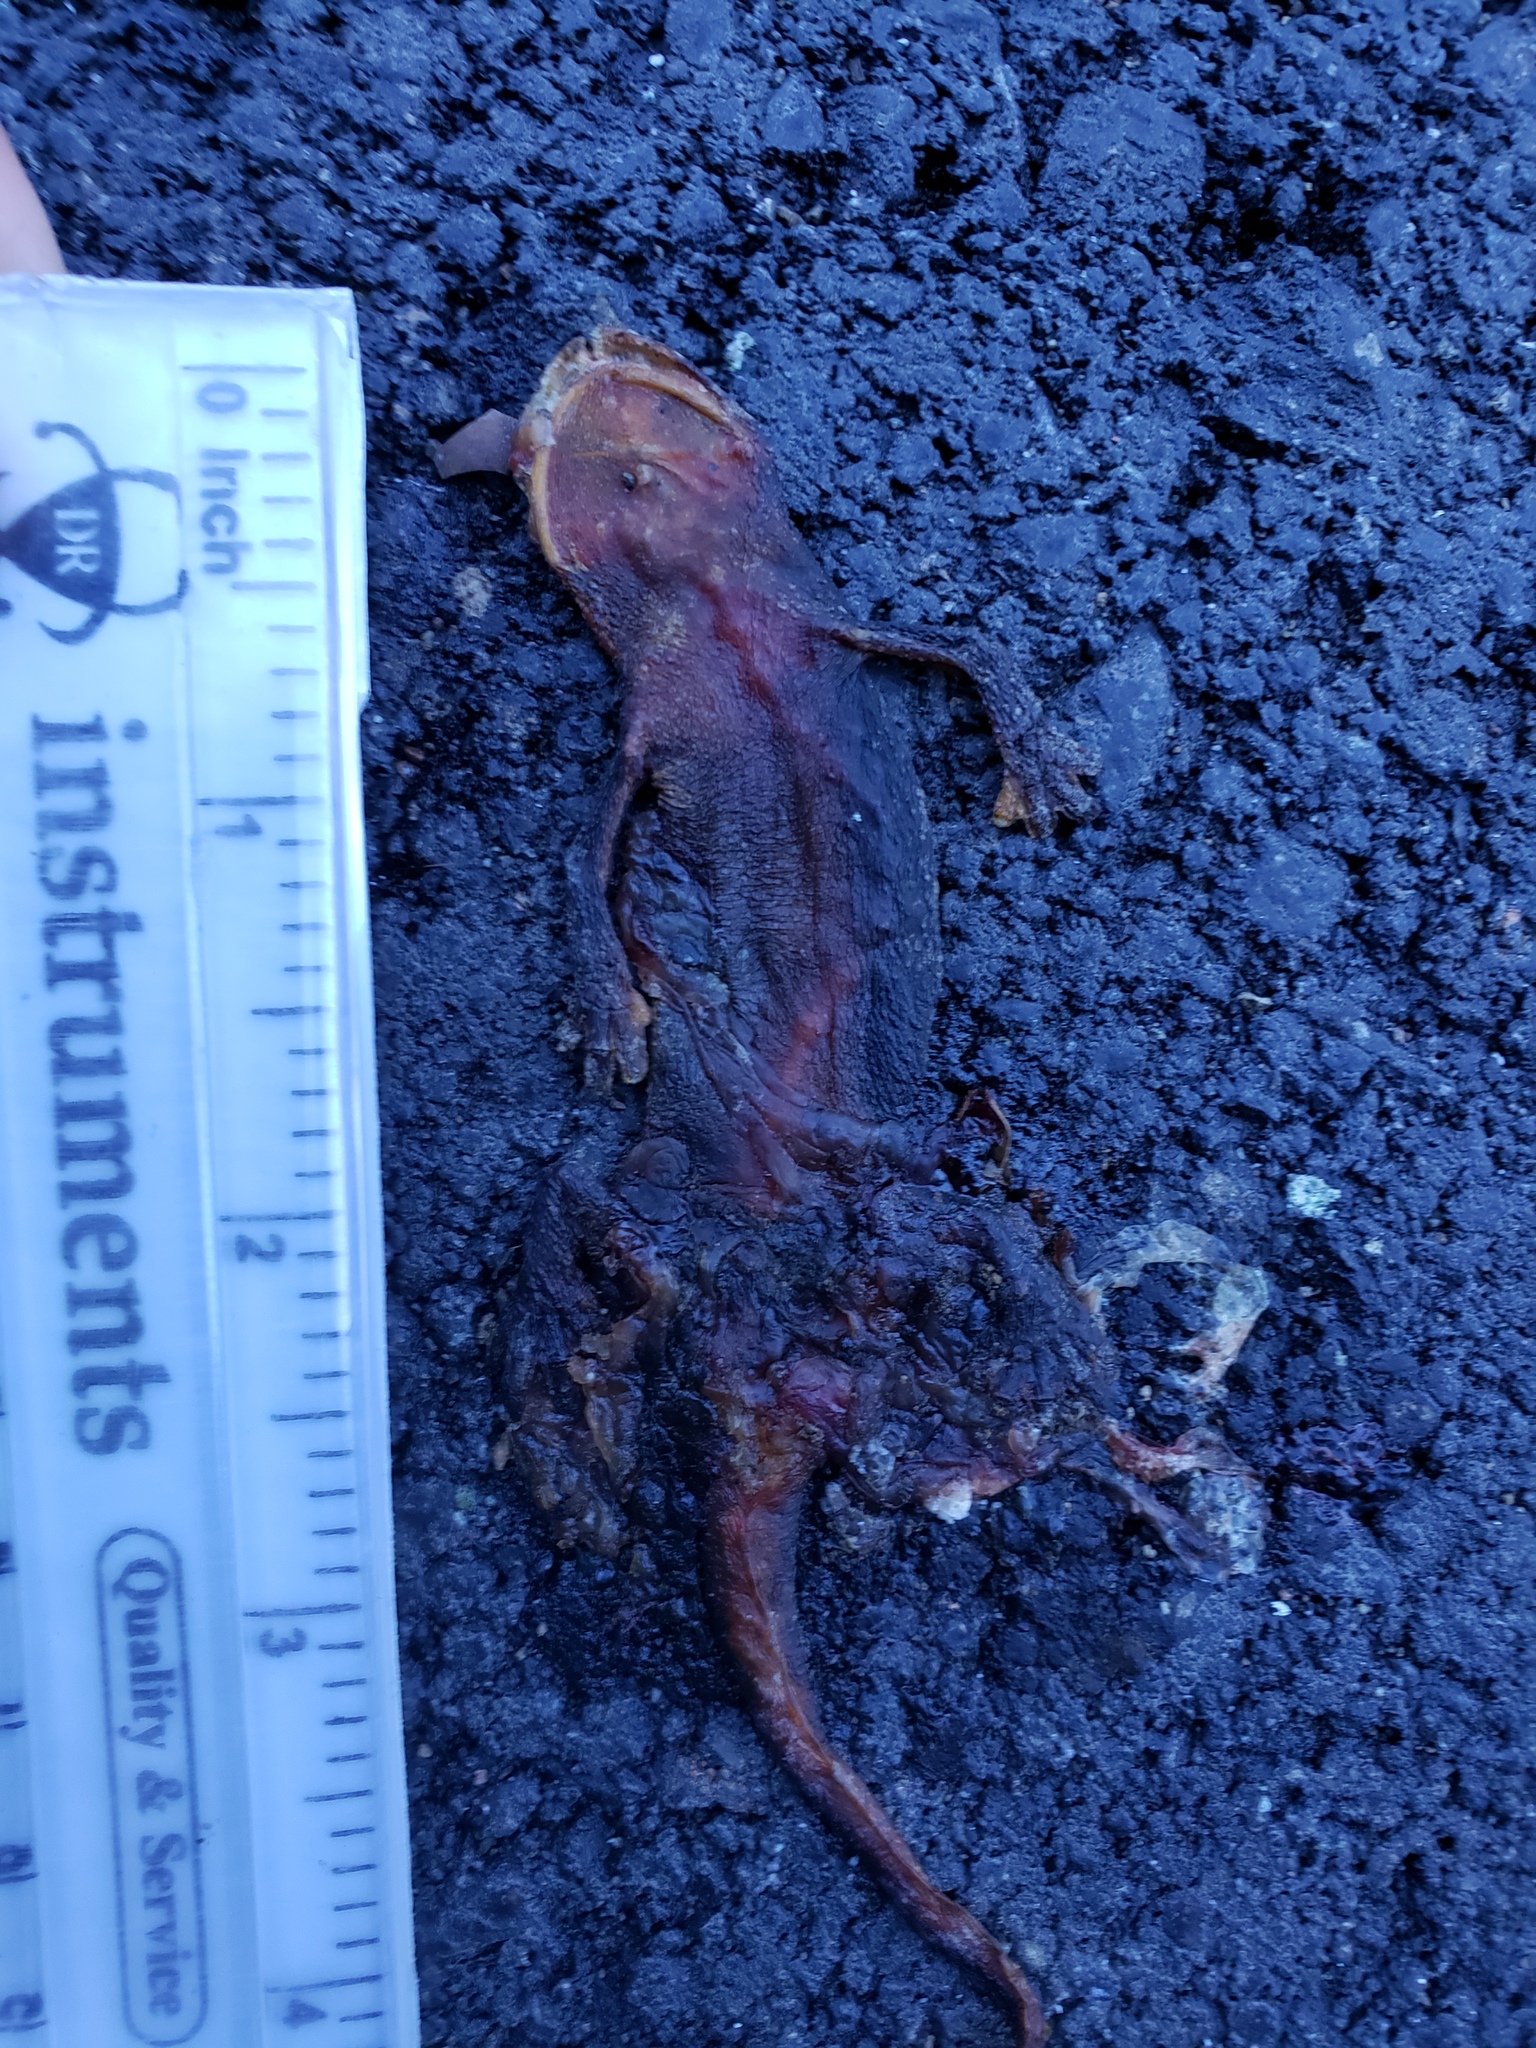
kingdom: Animalia
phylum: Chordata
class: Amphibia
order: Caudata
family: Salamandridae
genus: Taricha
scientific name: Taricha
